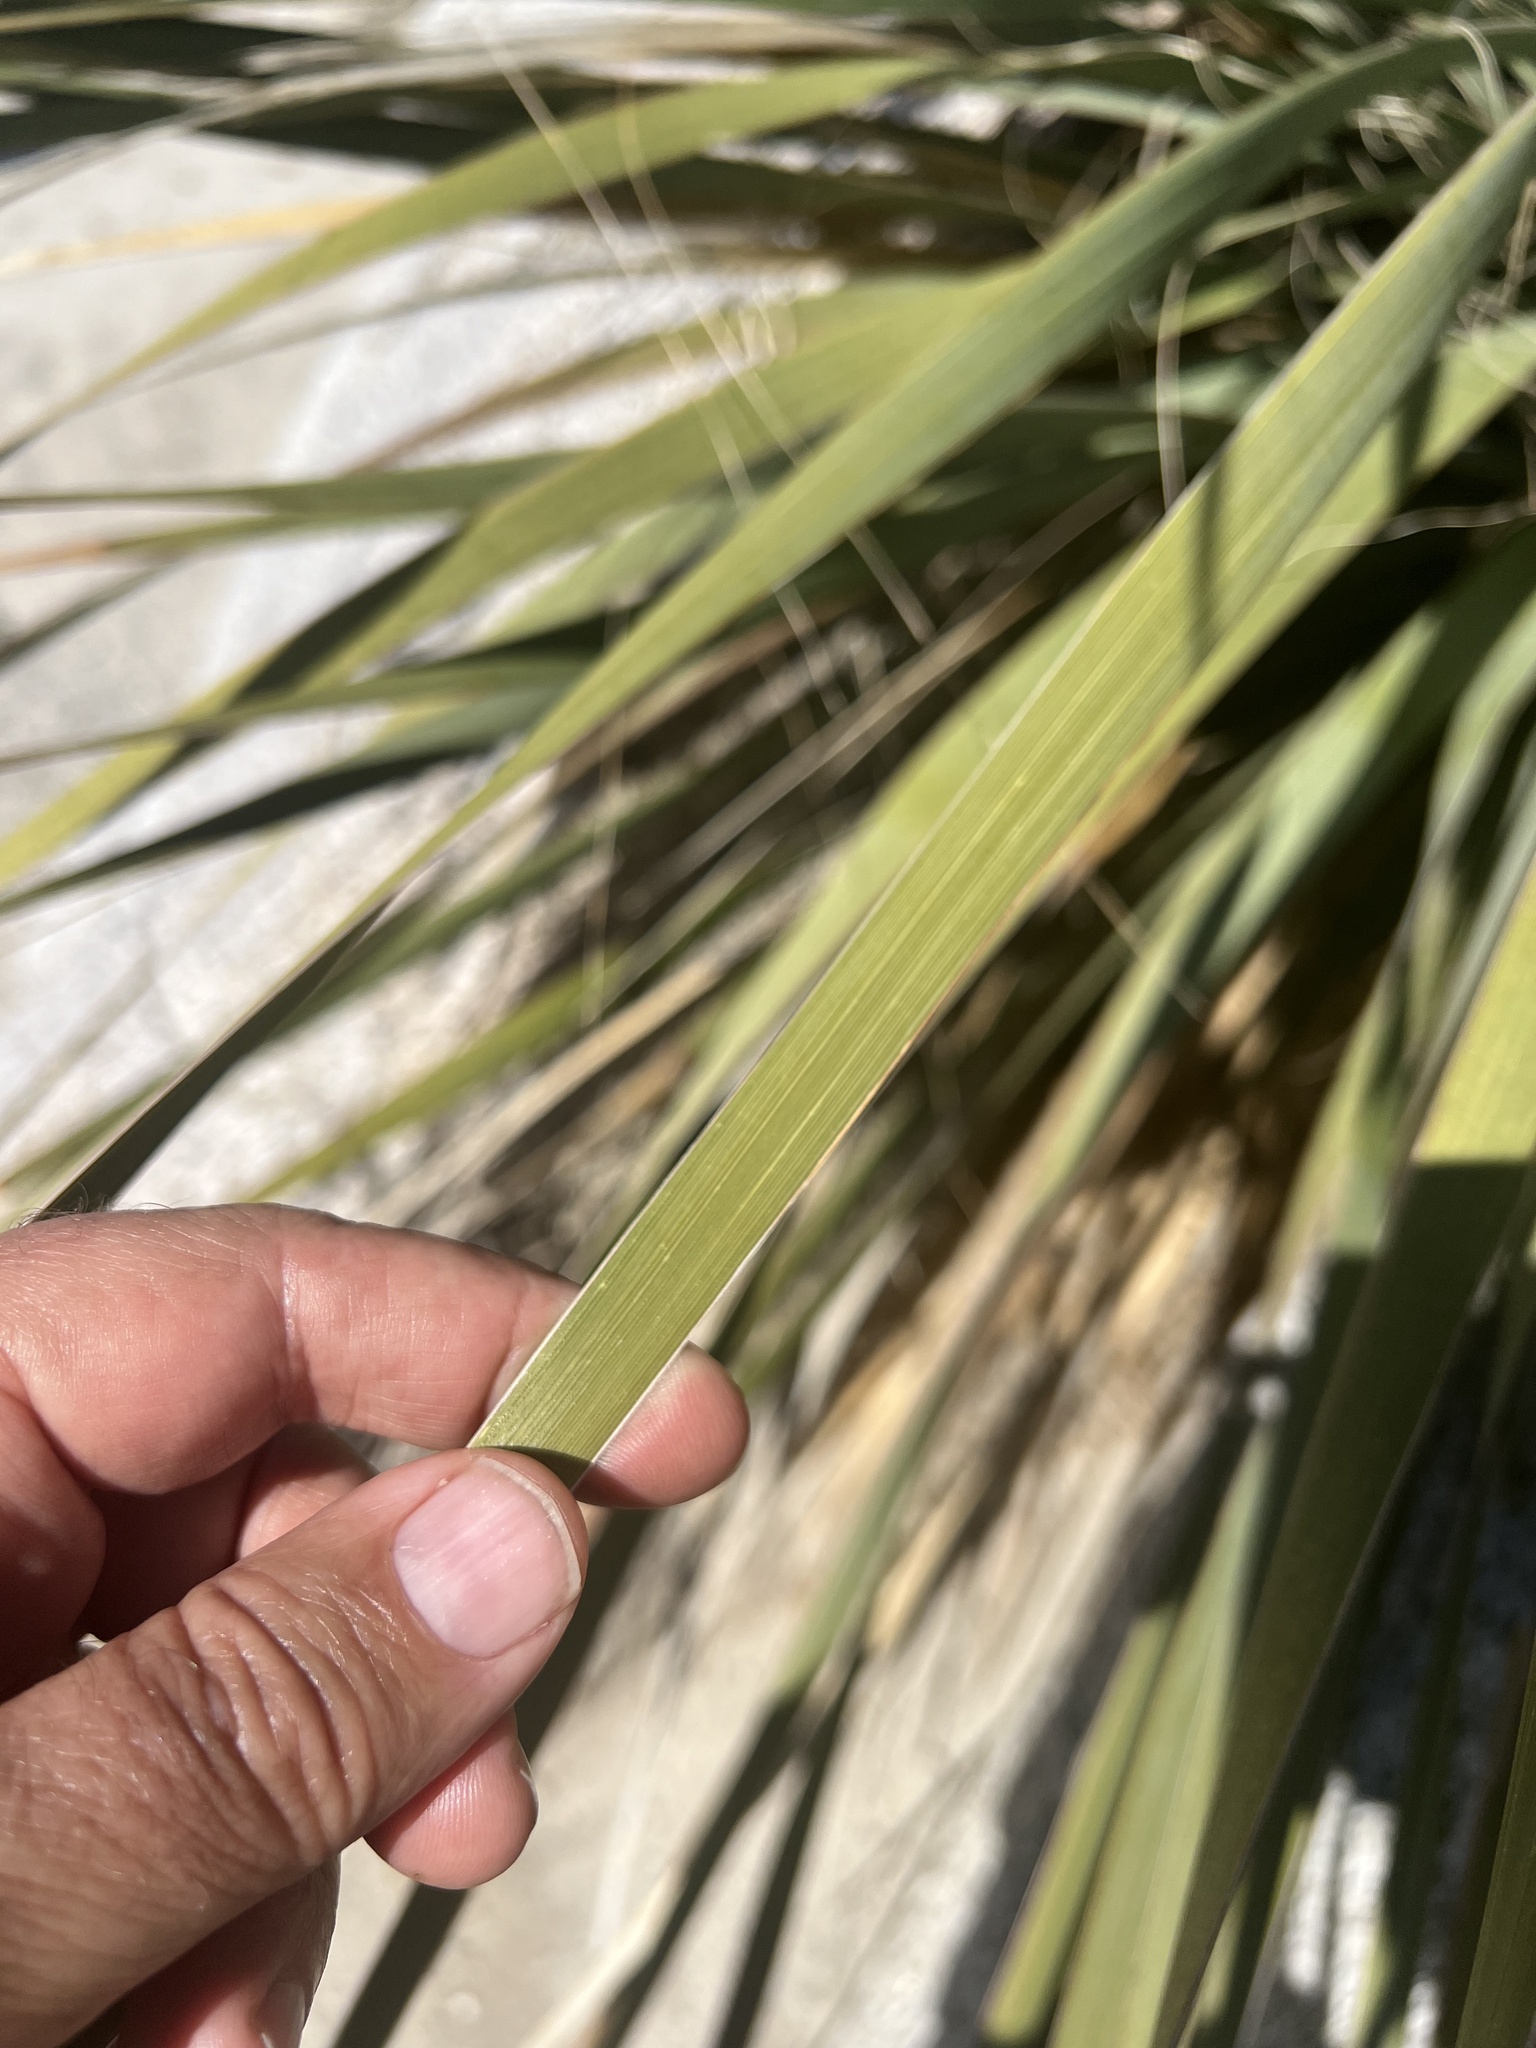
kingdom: Plantae
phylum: Tracheophyta
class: Liliopsida
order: Asparagales
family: Asparagaceae
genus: Nolina
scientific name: Nolina bigelovii
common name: Bigelow bear-grass
